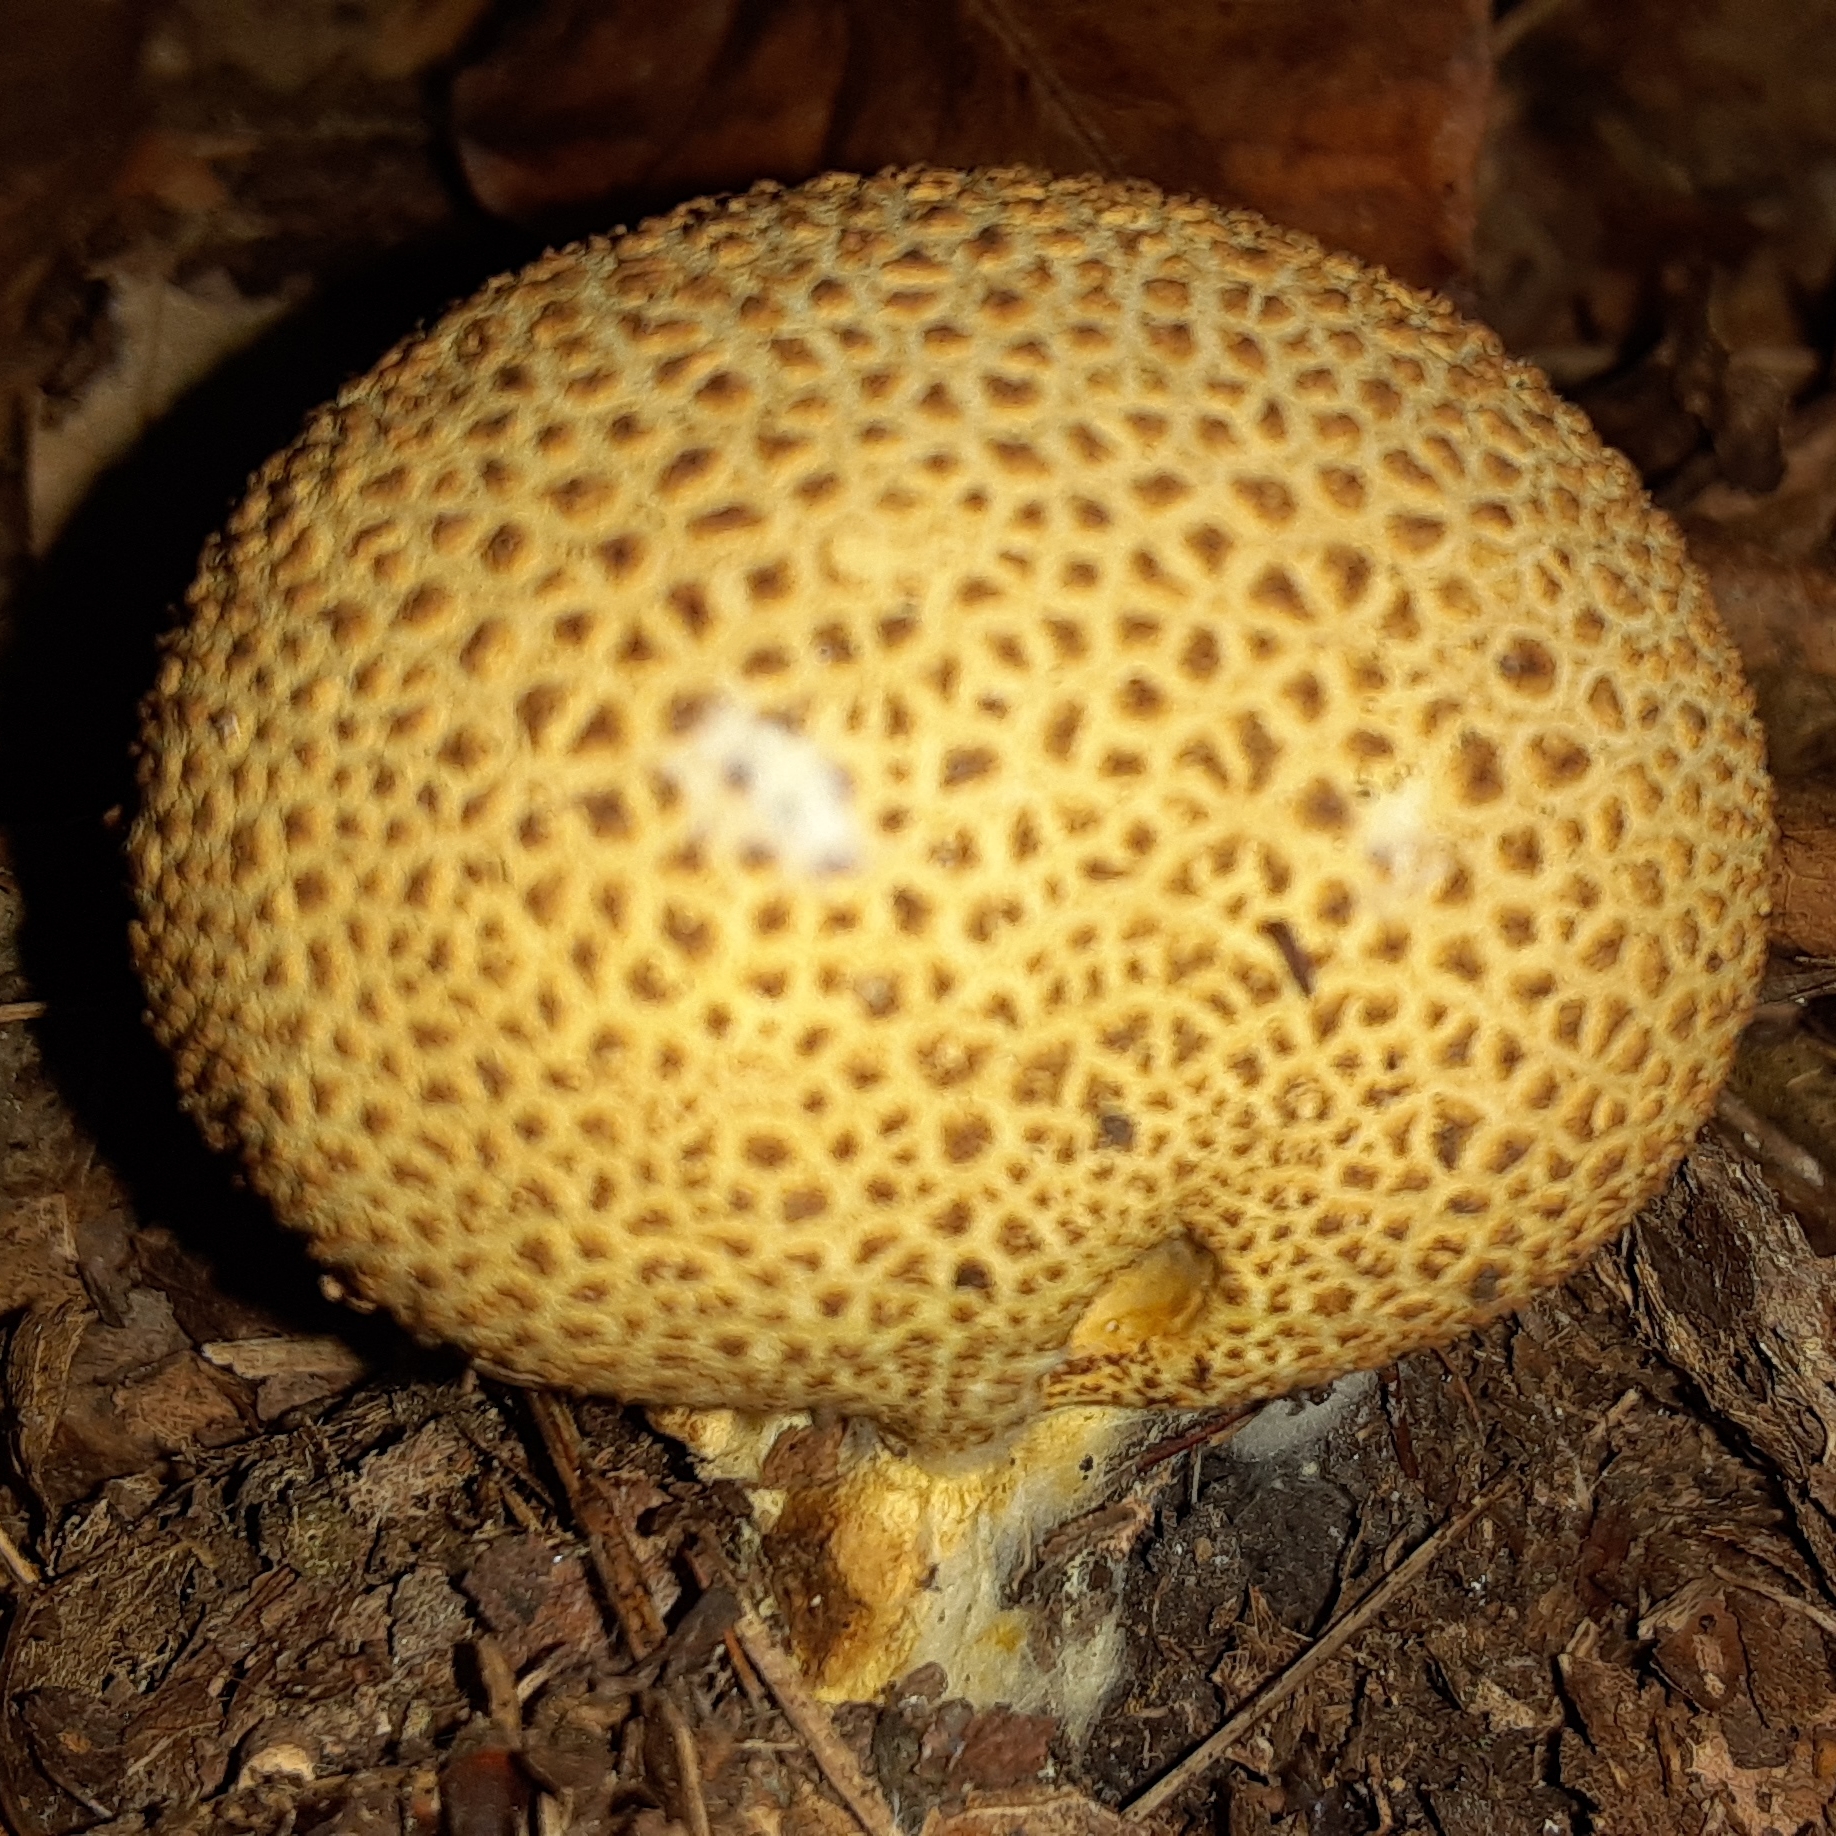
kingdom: Fungi
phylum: Basidiomycota
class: Agaricomycetes
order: Boletales
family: Sclerodermataceae
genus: Scleroderma
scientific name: Scleroderma citrinum
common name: Common earthball
